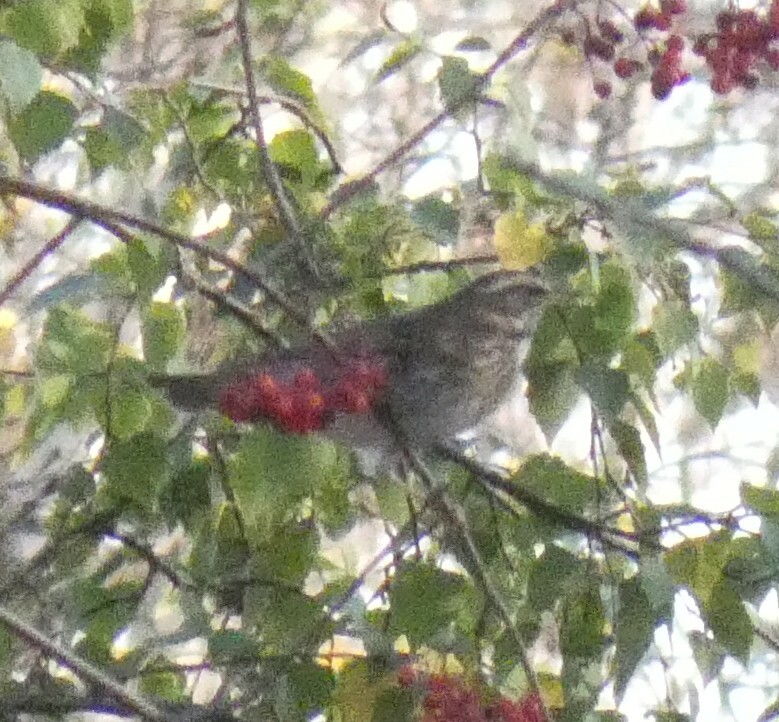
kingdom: Animalia
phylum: Chordata
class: Aves
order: Passeriformes
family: Turdidae
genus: Turdus
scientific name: Turdus iliacus
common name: Redwing
